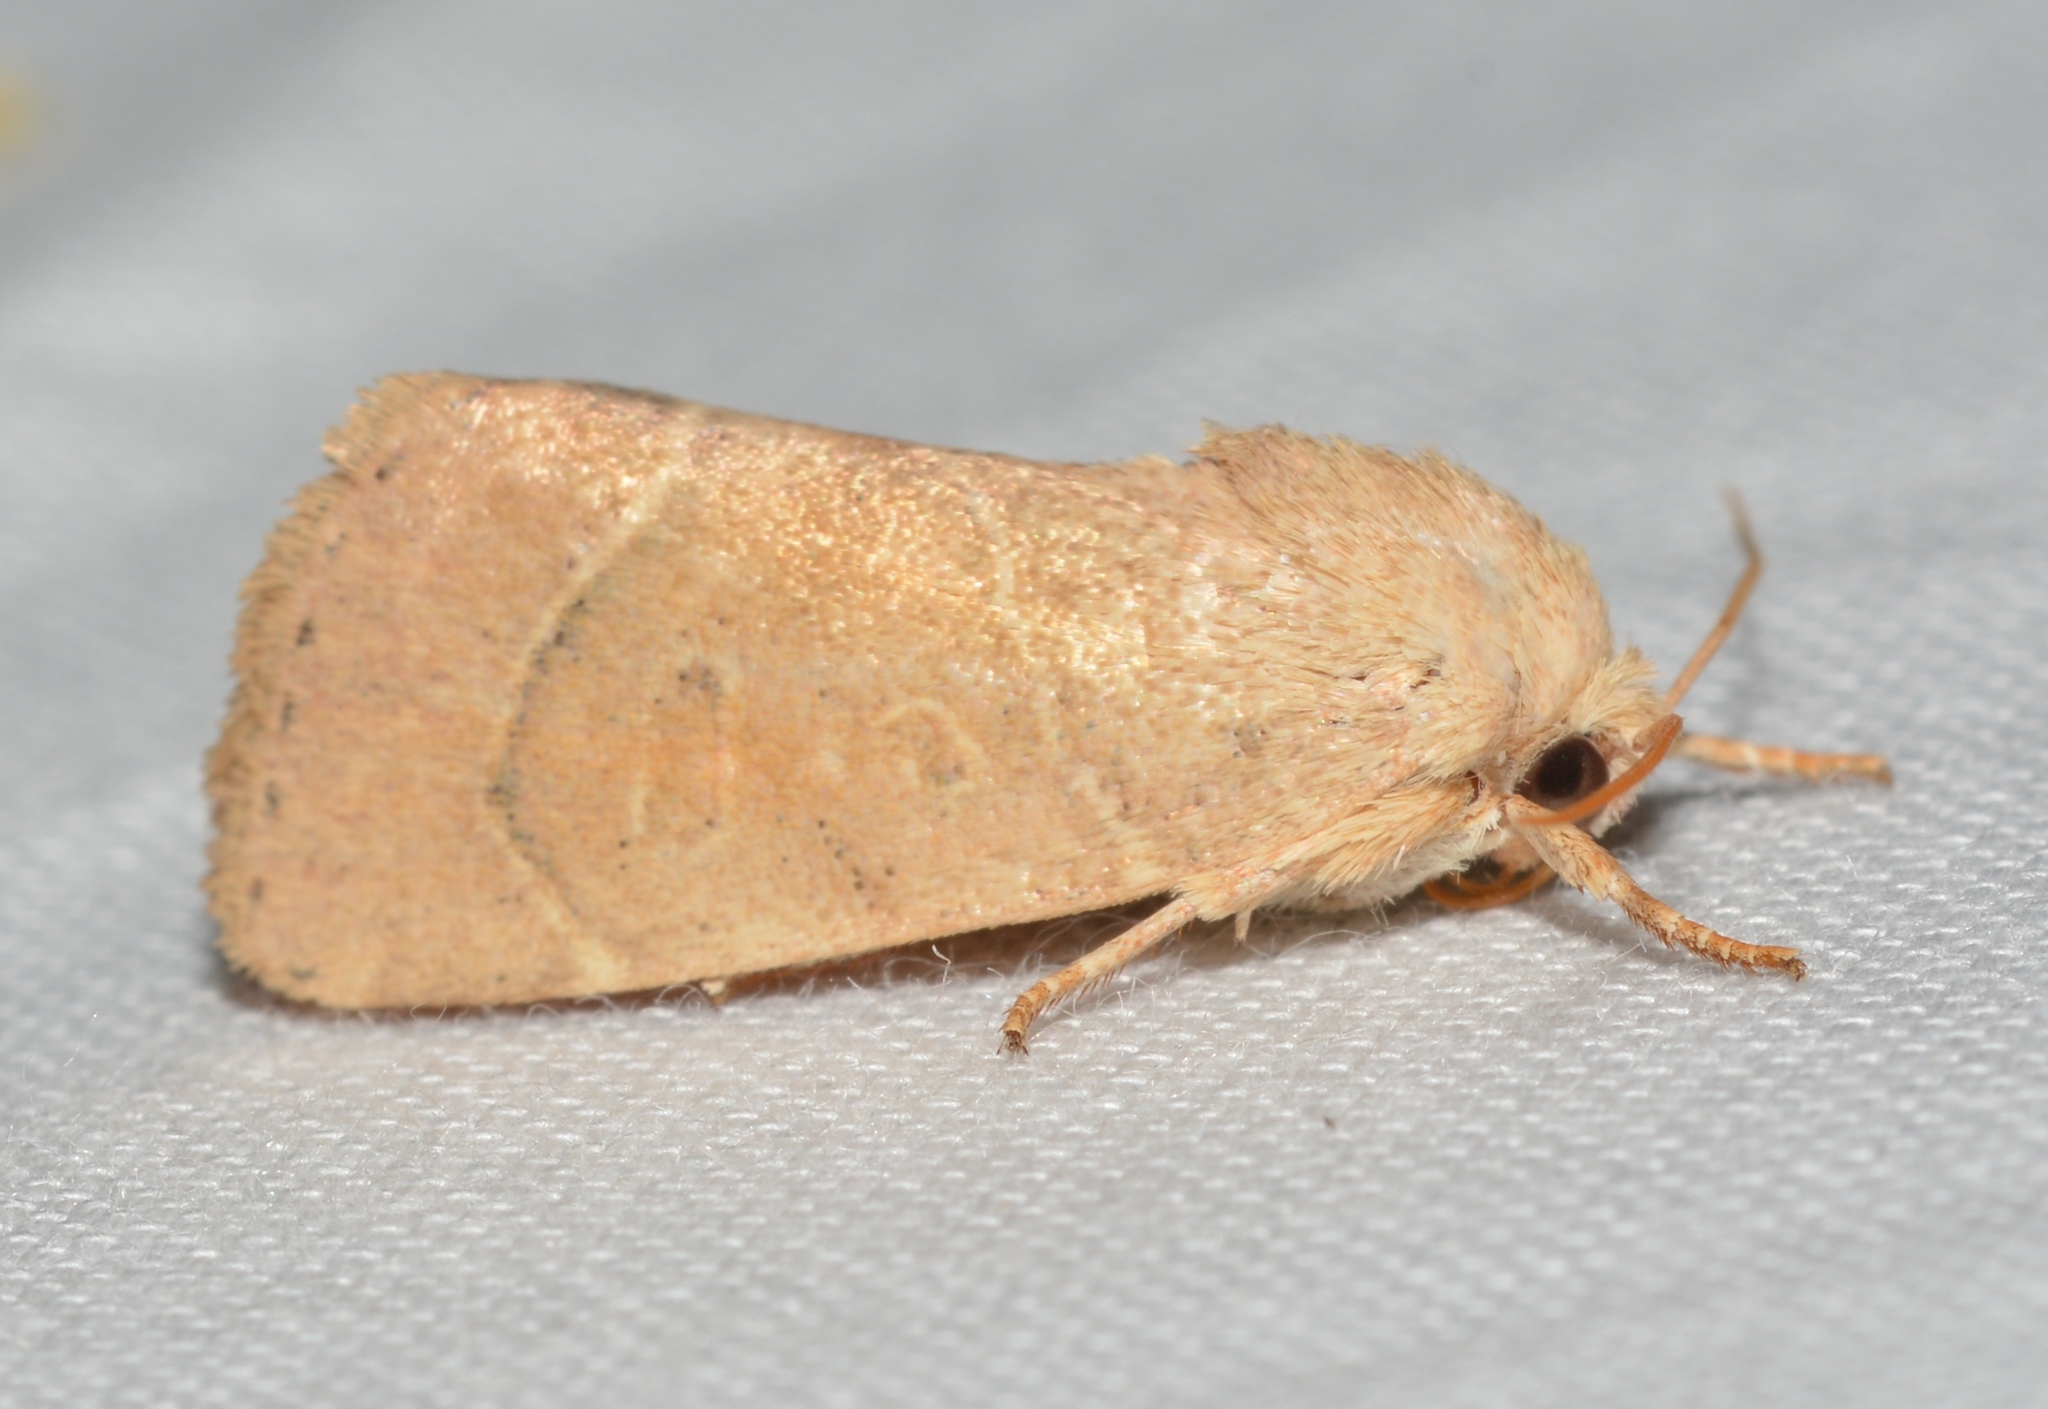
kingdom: Animalia
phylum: Arthropoda
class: Insecta
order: Lepidoptera
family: Noctuidae
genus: Cosmia
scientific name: Cosmia calami
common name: American dun-bar moth
